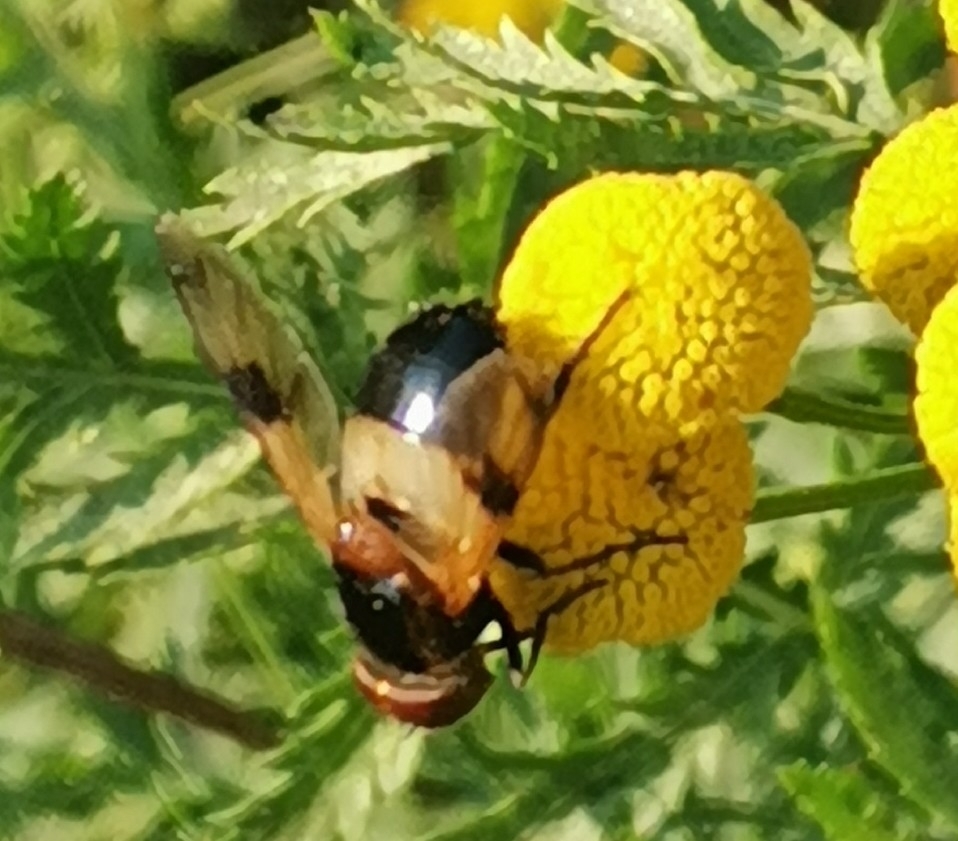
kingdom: Animalia
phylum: Arthropoda
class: Insecta
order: Diptera
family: Syrphidae
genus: Volucella
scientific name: Volucella pellucens
